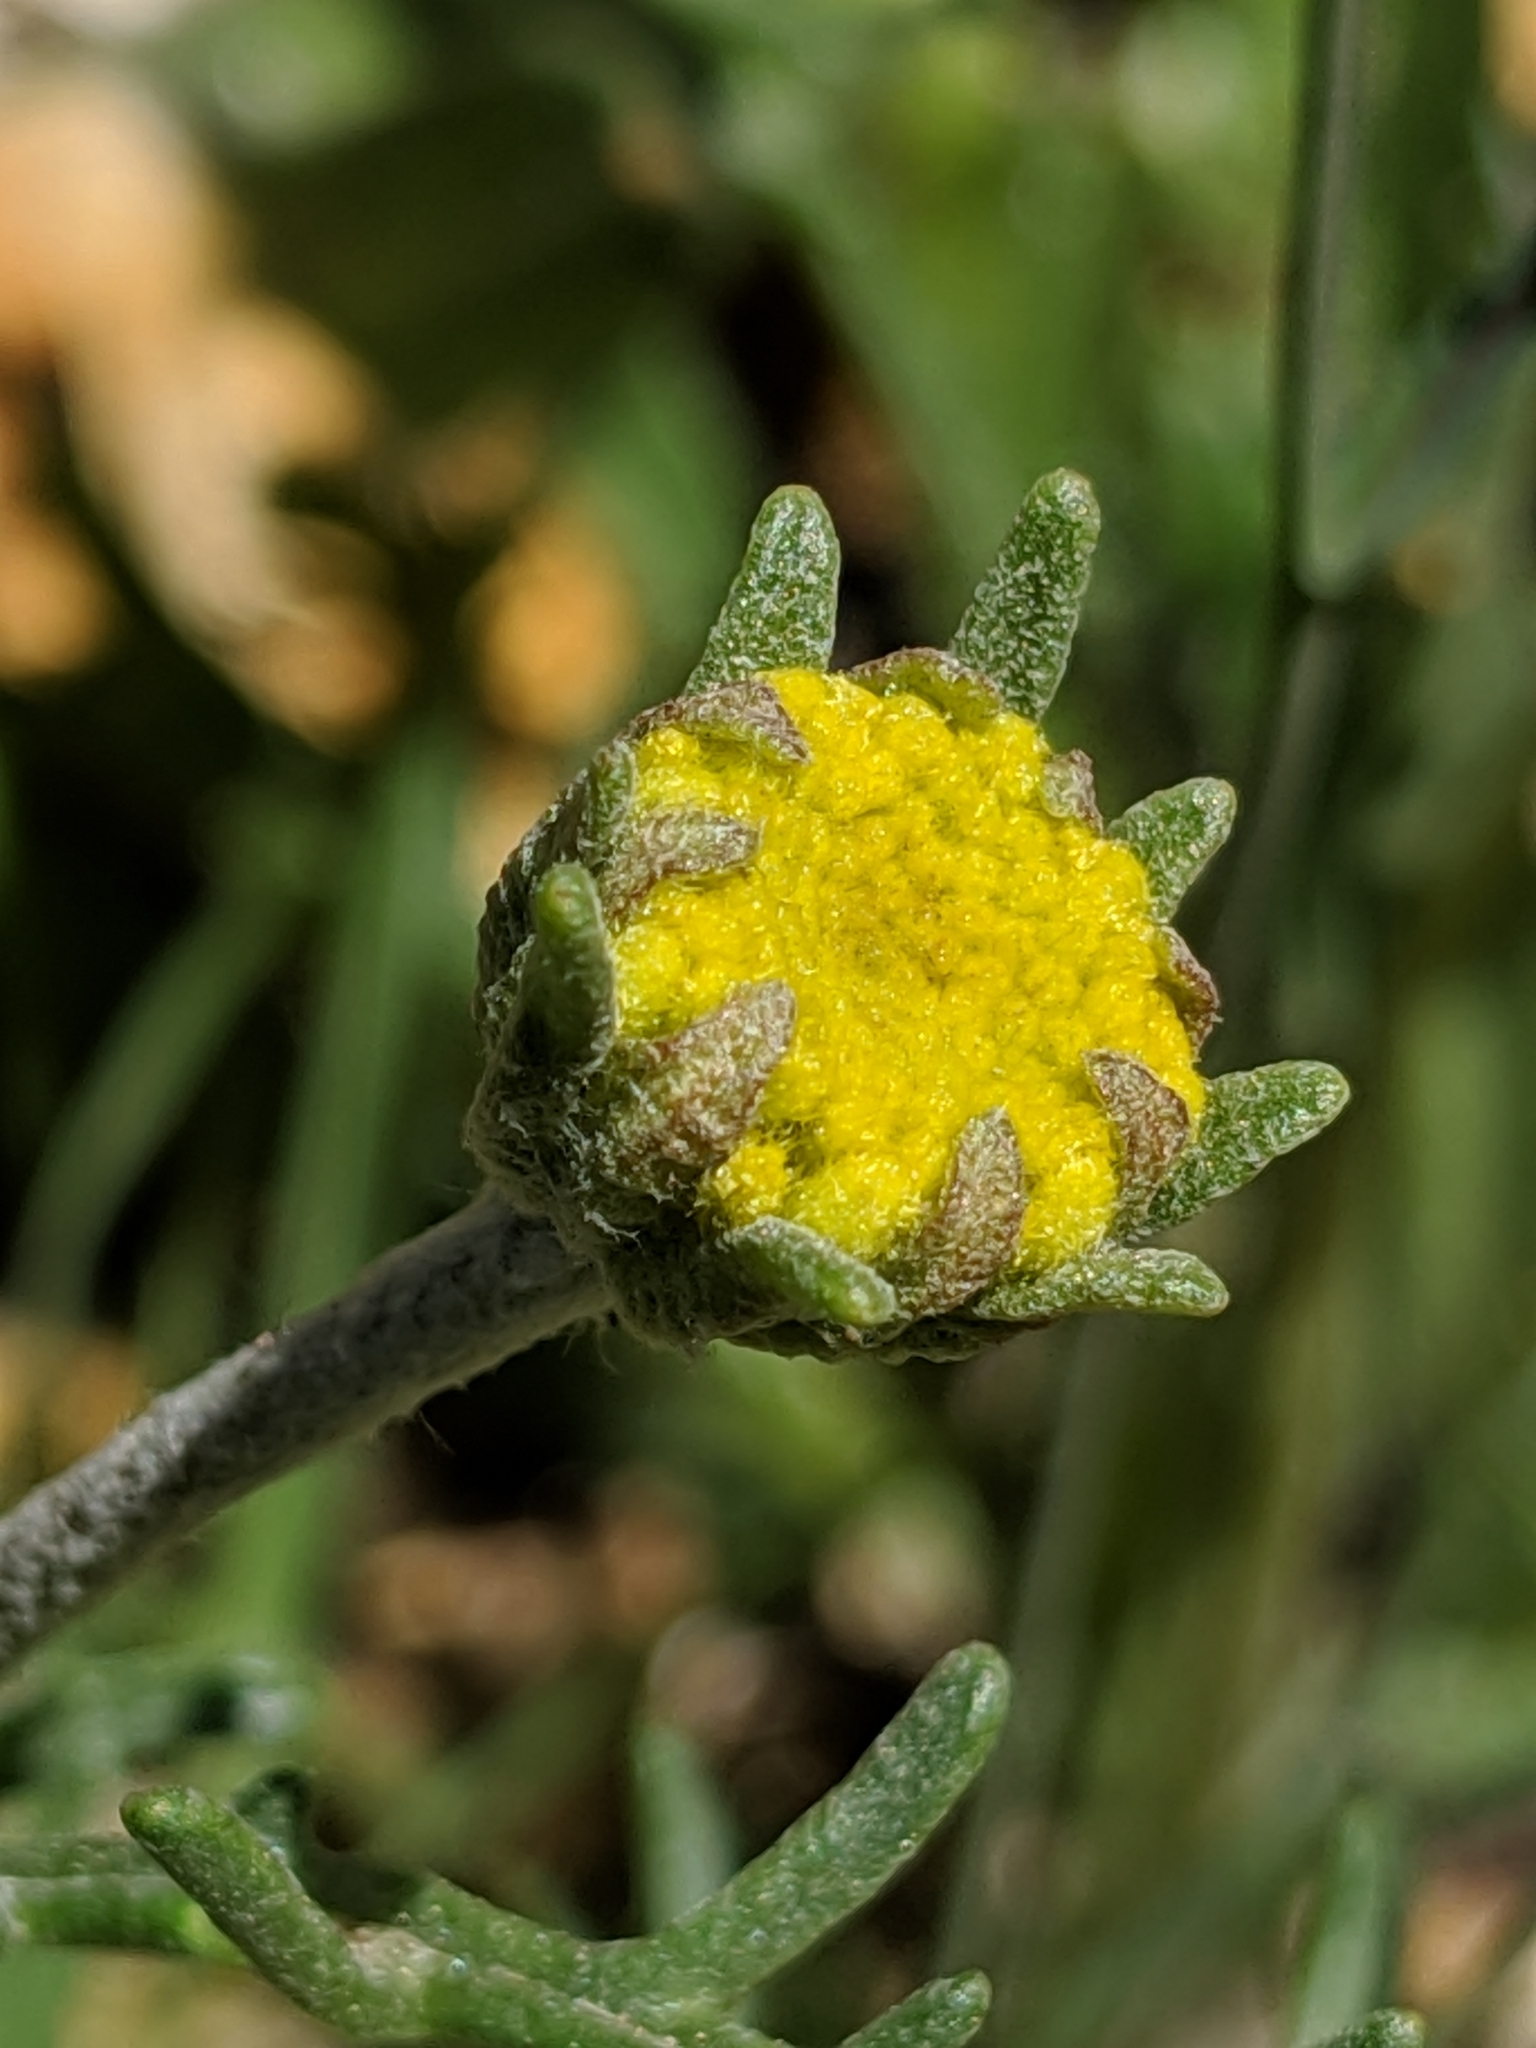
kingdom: Plantae
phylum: Tracheophyta
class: Magnoliopsida
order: Asterales
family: Asteraceae
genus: Chaenactis
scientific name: Chaenactis glabriuscula
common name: Yellow pincushion
